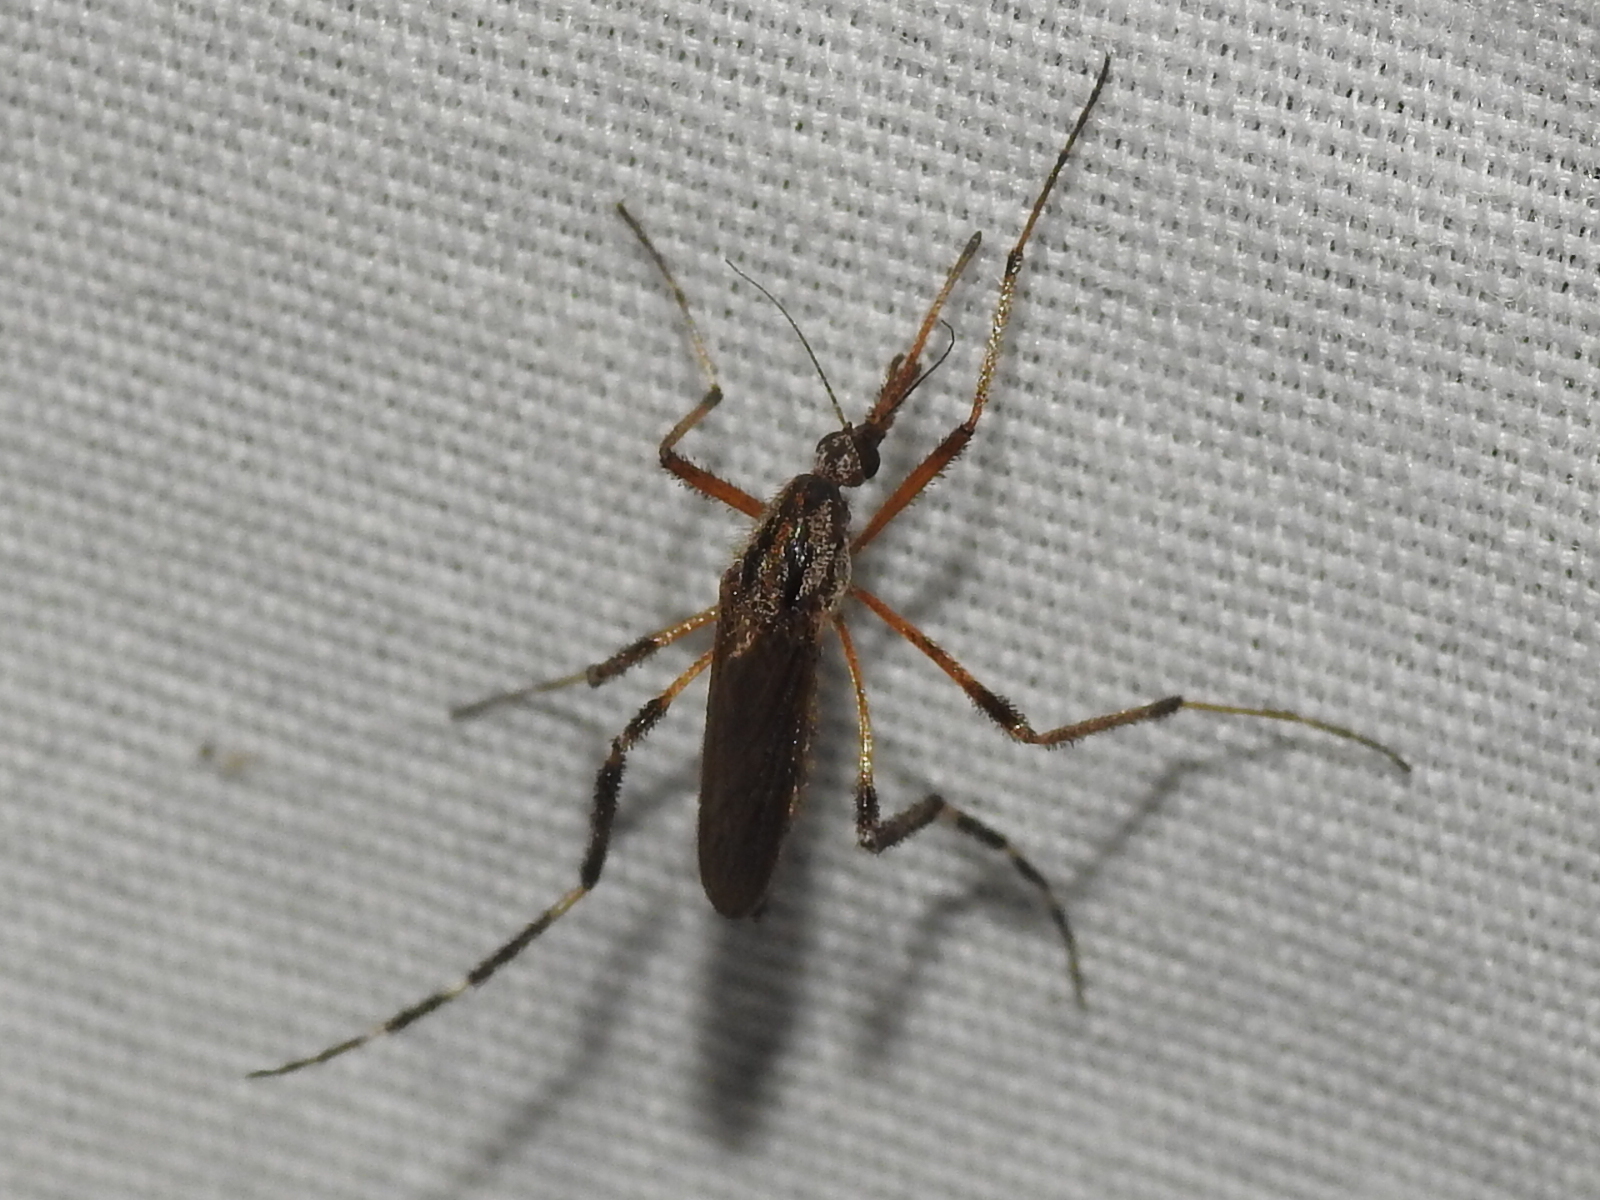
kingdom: Animalia
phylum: Arthropoda
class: Insecta
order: Diptera
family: Culicidae
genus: Psorophora
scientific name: Psorophora ciliata
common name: Gallinipper
